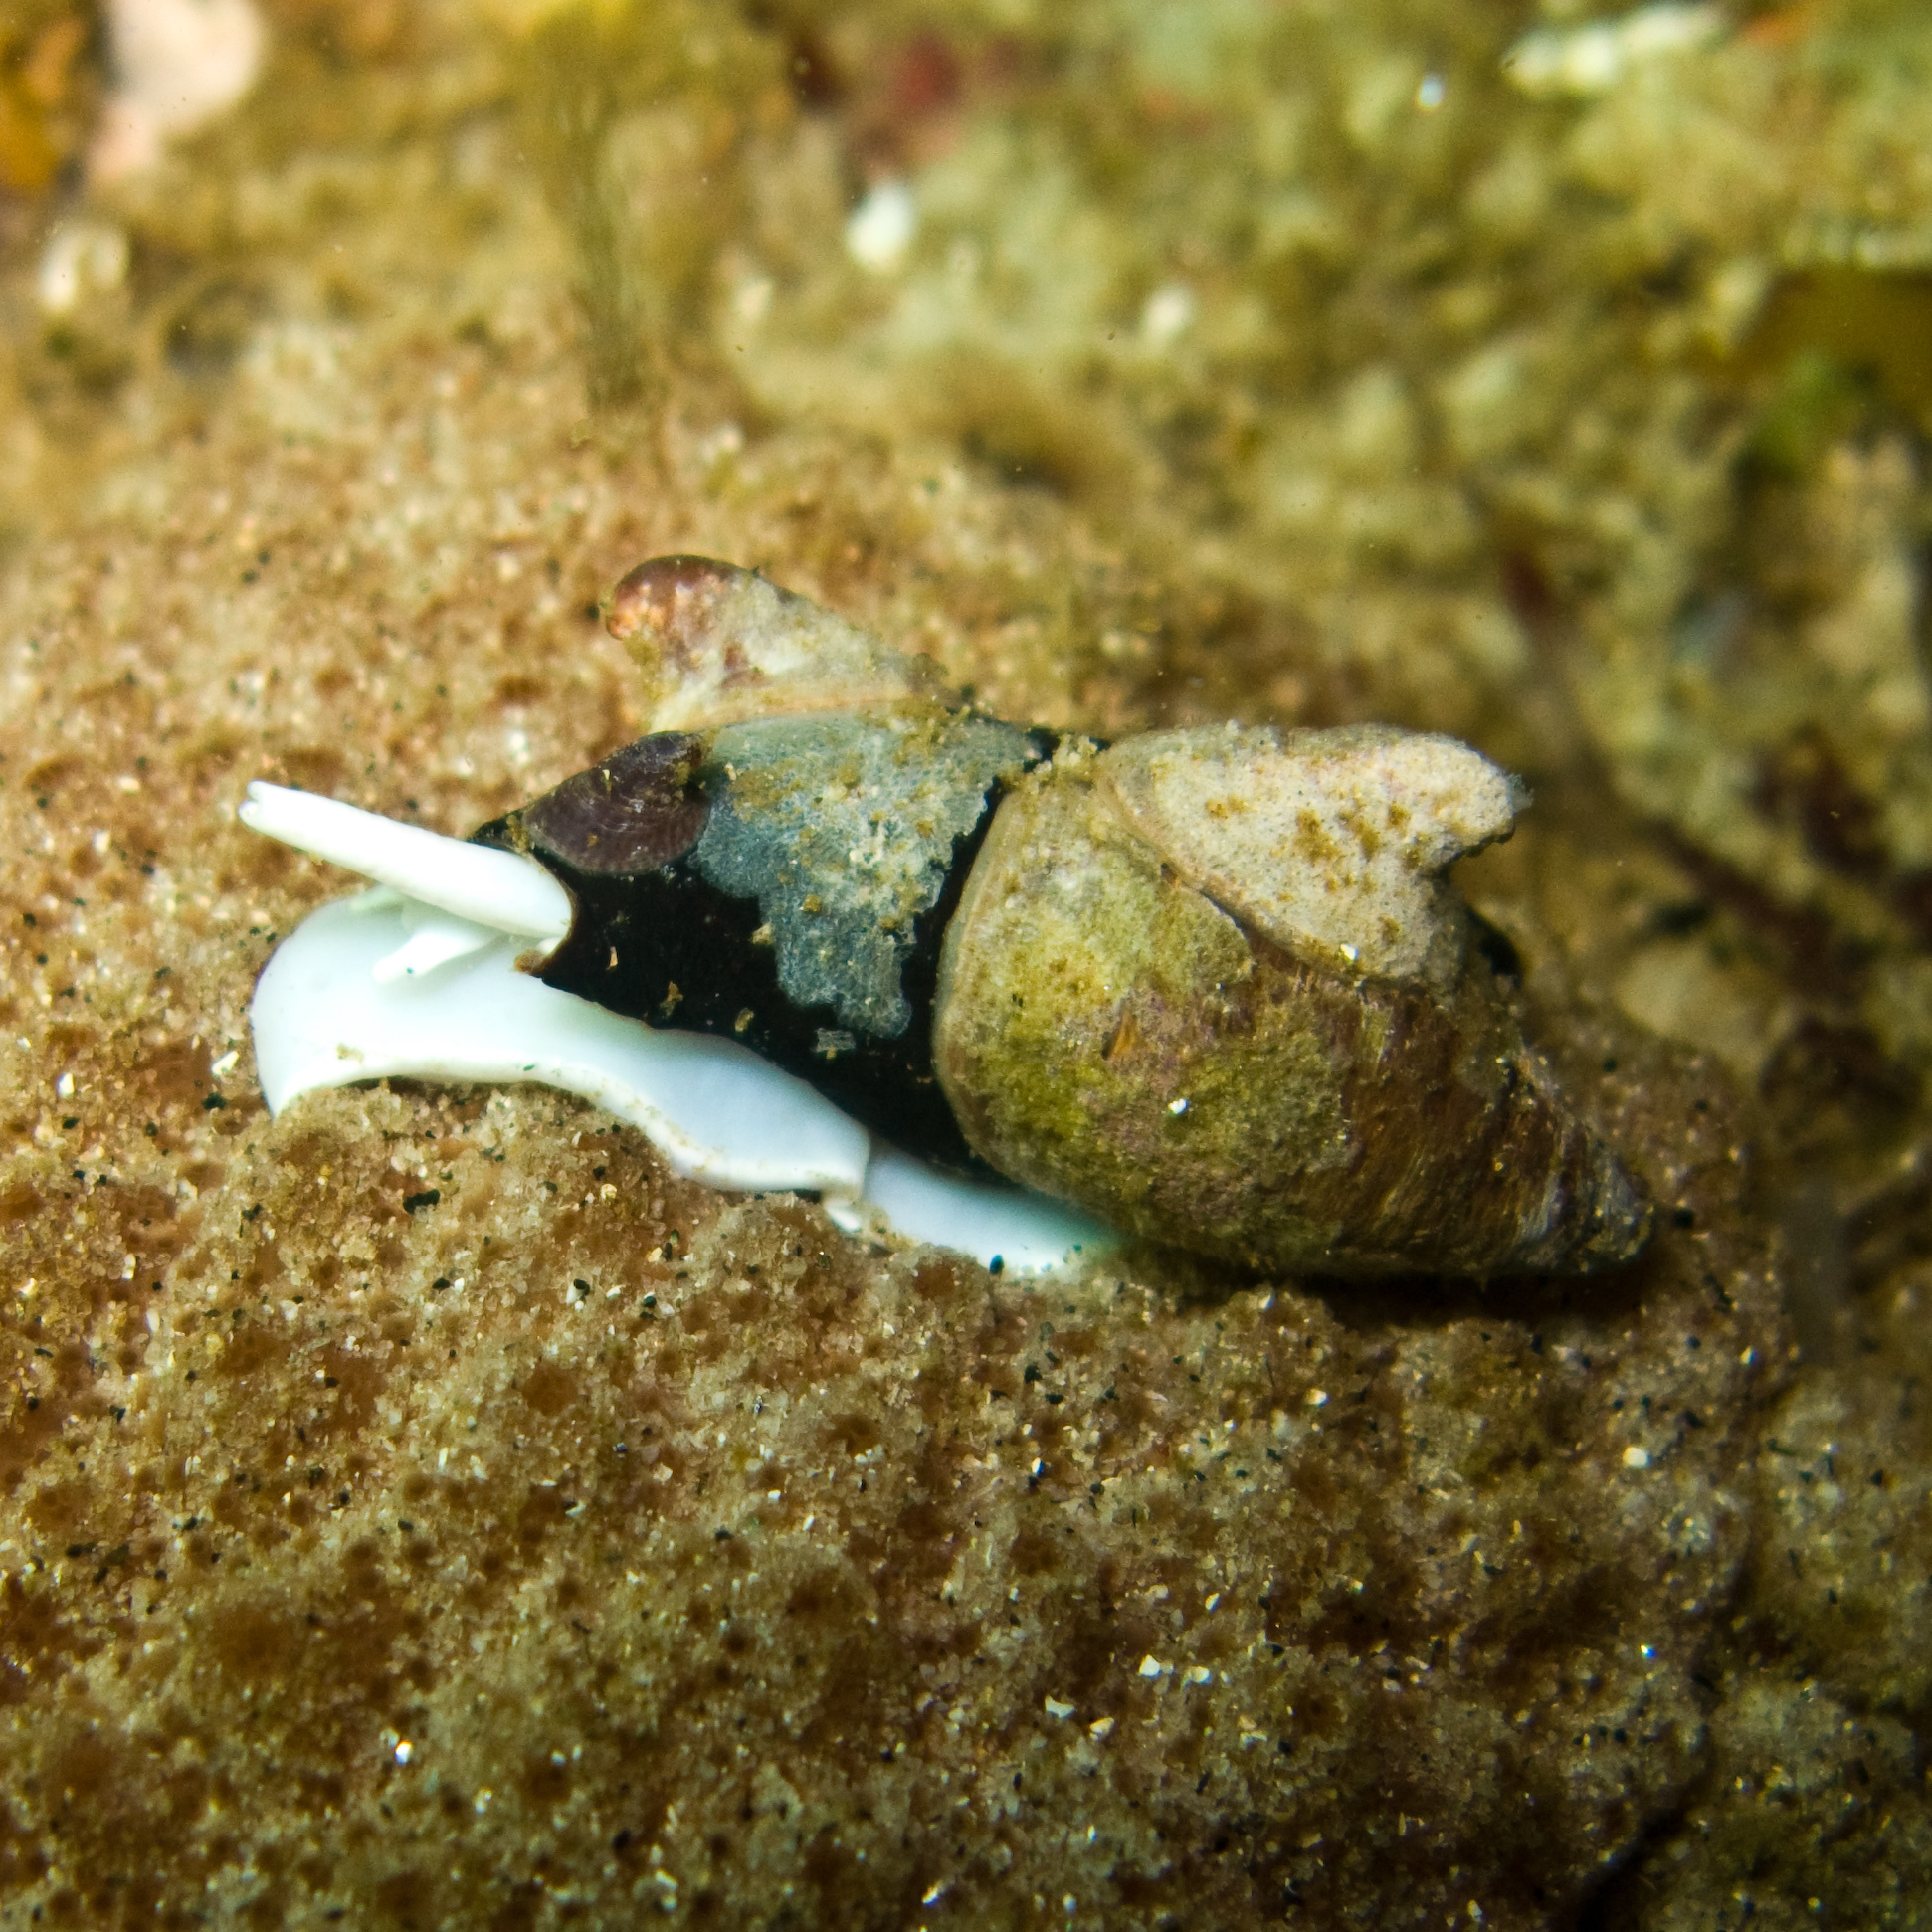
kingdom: Animalia
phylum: Mollusca
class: Gastropoda
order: Littorinimorpha
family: Calyptraeidae
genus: Crepidula
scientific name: Crepidula adunca
